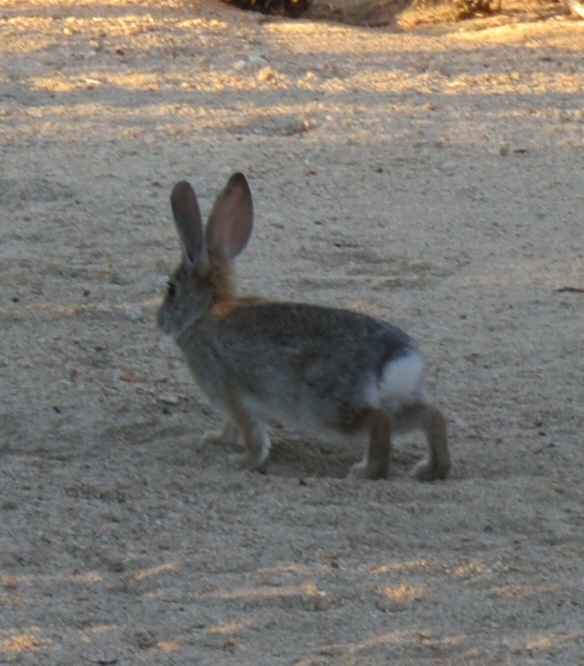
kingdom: Animalia
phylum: Chordata
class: Mammalia
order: Lagomorpha
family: Leporidae
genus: Sylvilagus
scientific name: Sylvilagus audubonii
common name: Desert cottontail
